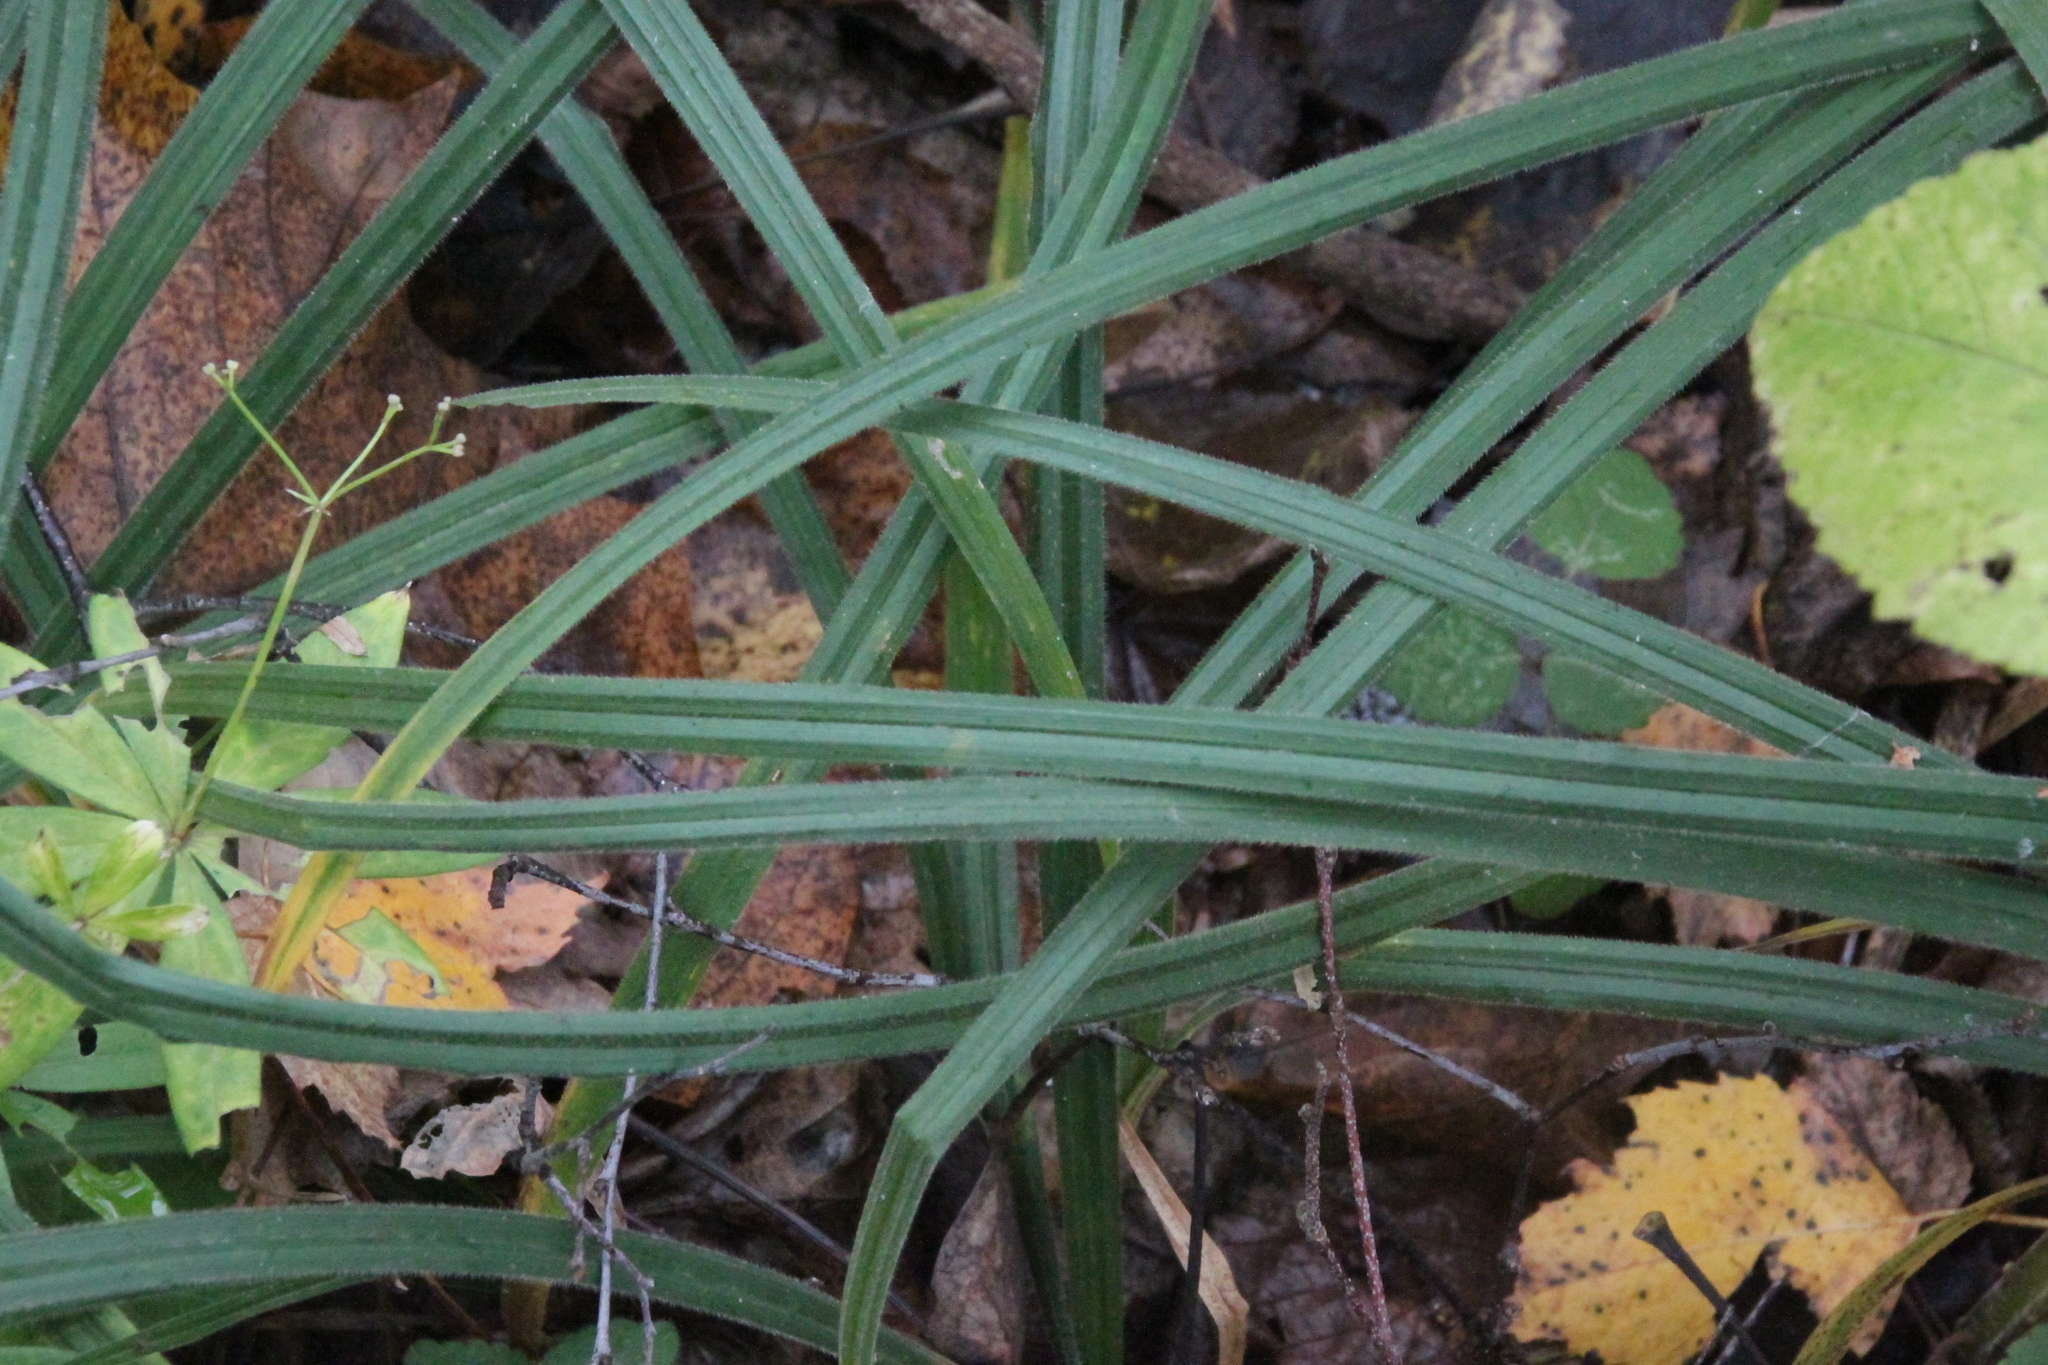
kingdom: Plantae
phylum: Tracheophyta
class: Liliopsida
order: Poales
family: Cyperaceae
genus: Carex
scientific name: Carex pilosa
